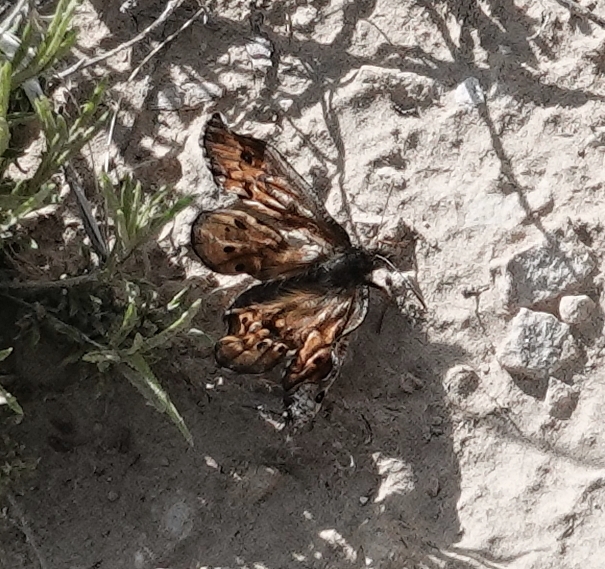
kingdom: Animalia
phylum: Arthropoda
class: Insecta
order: Lepidoptera
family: Nymphalidae
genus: Oeneis
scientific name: Oeneis uhleri
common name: Uhler's arctic
